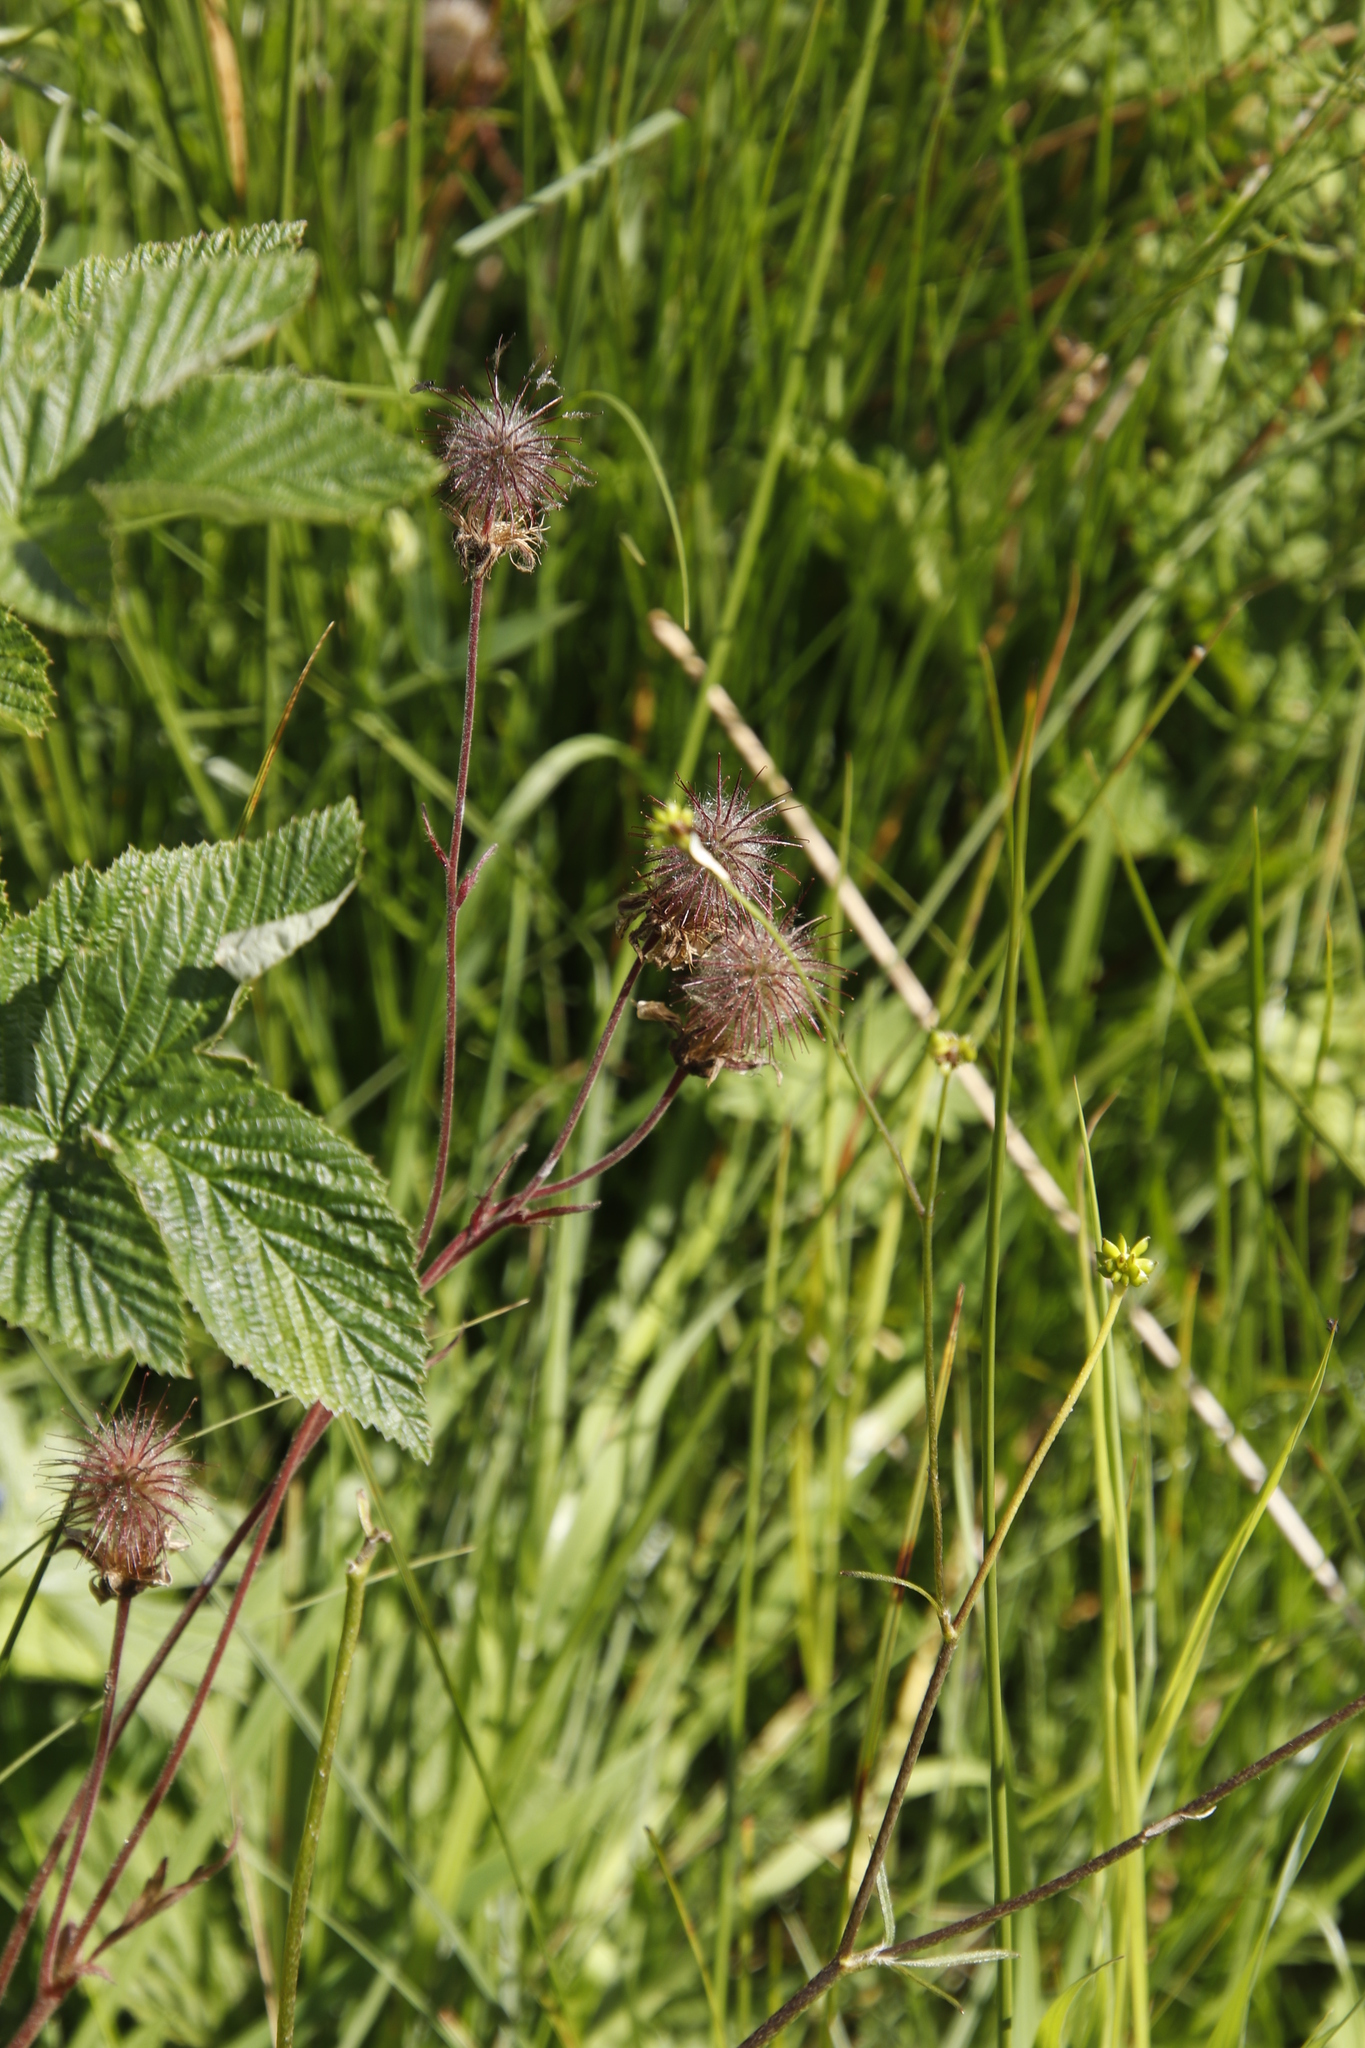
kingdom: Plantae
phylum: Tracheophyta
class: Magnoliopsida
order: Rosales
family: Rosaceae
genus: Geum
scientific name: Geum rivale
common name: Water avens
